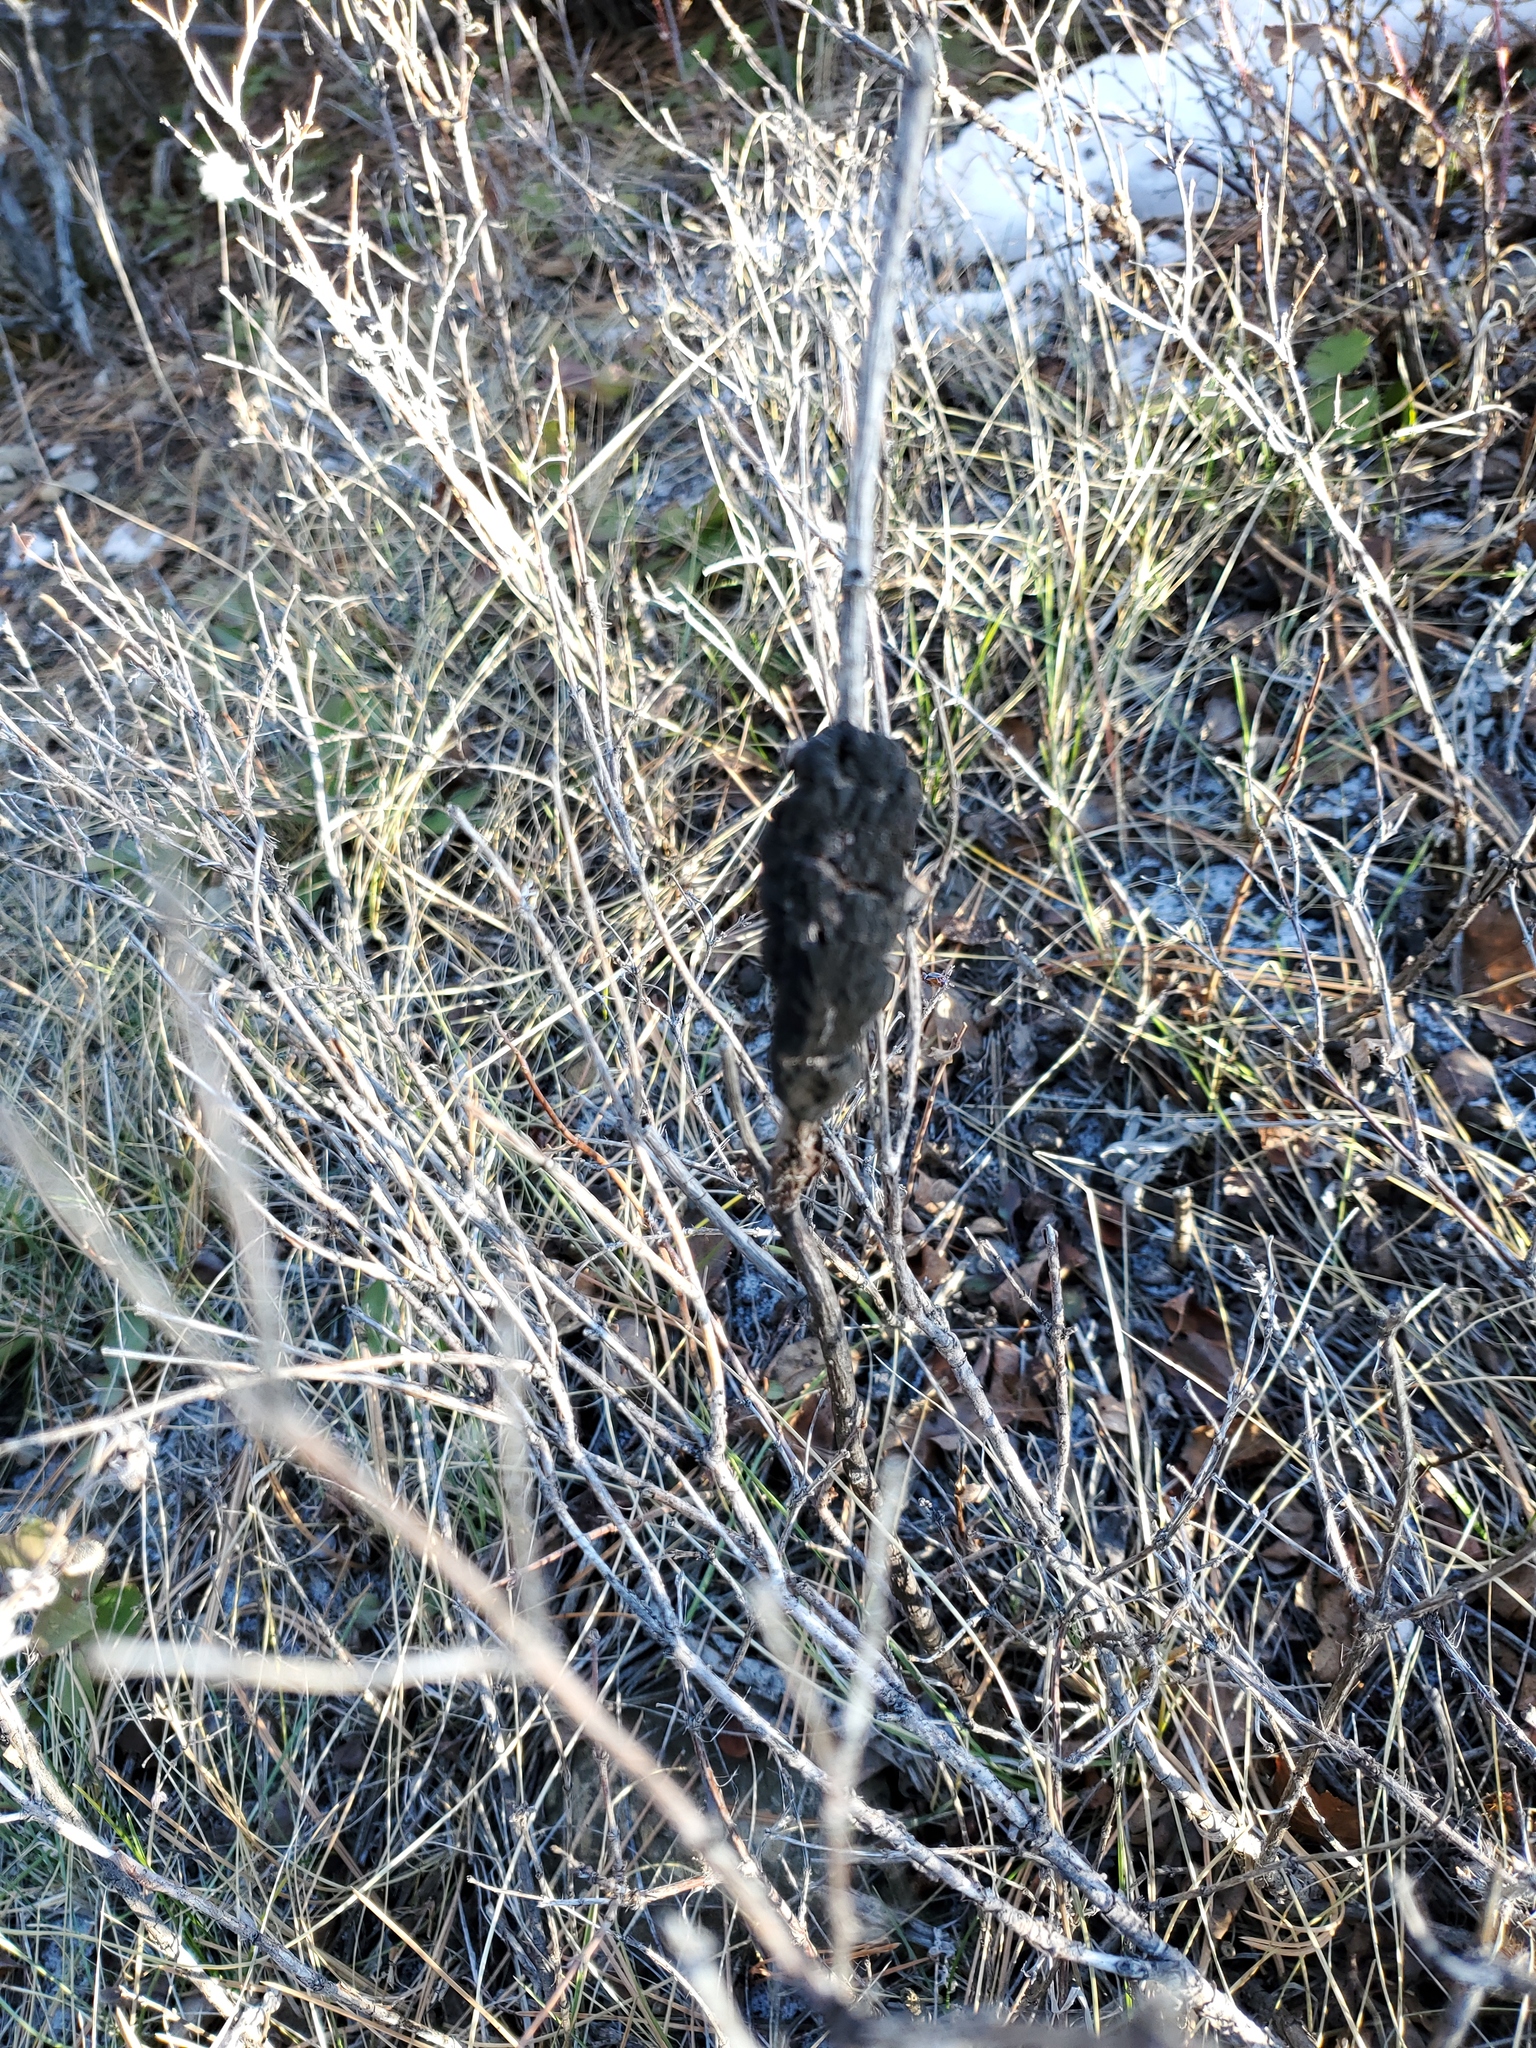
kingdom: Fungi
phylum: Ascomycota
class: Dothideomycetes
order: Venturiales
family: Venturiaceae
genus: Apiosporina
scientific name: Apiosporina morbosa
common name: Black knot
